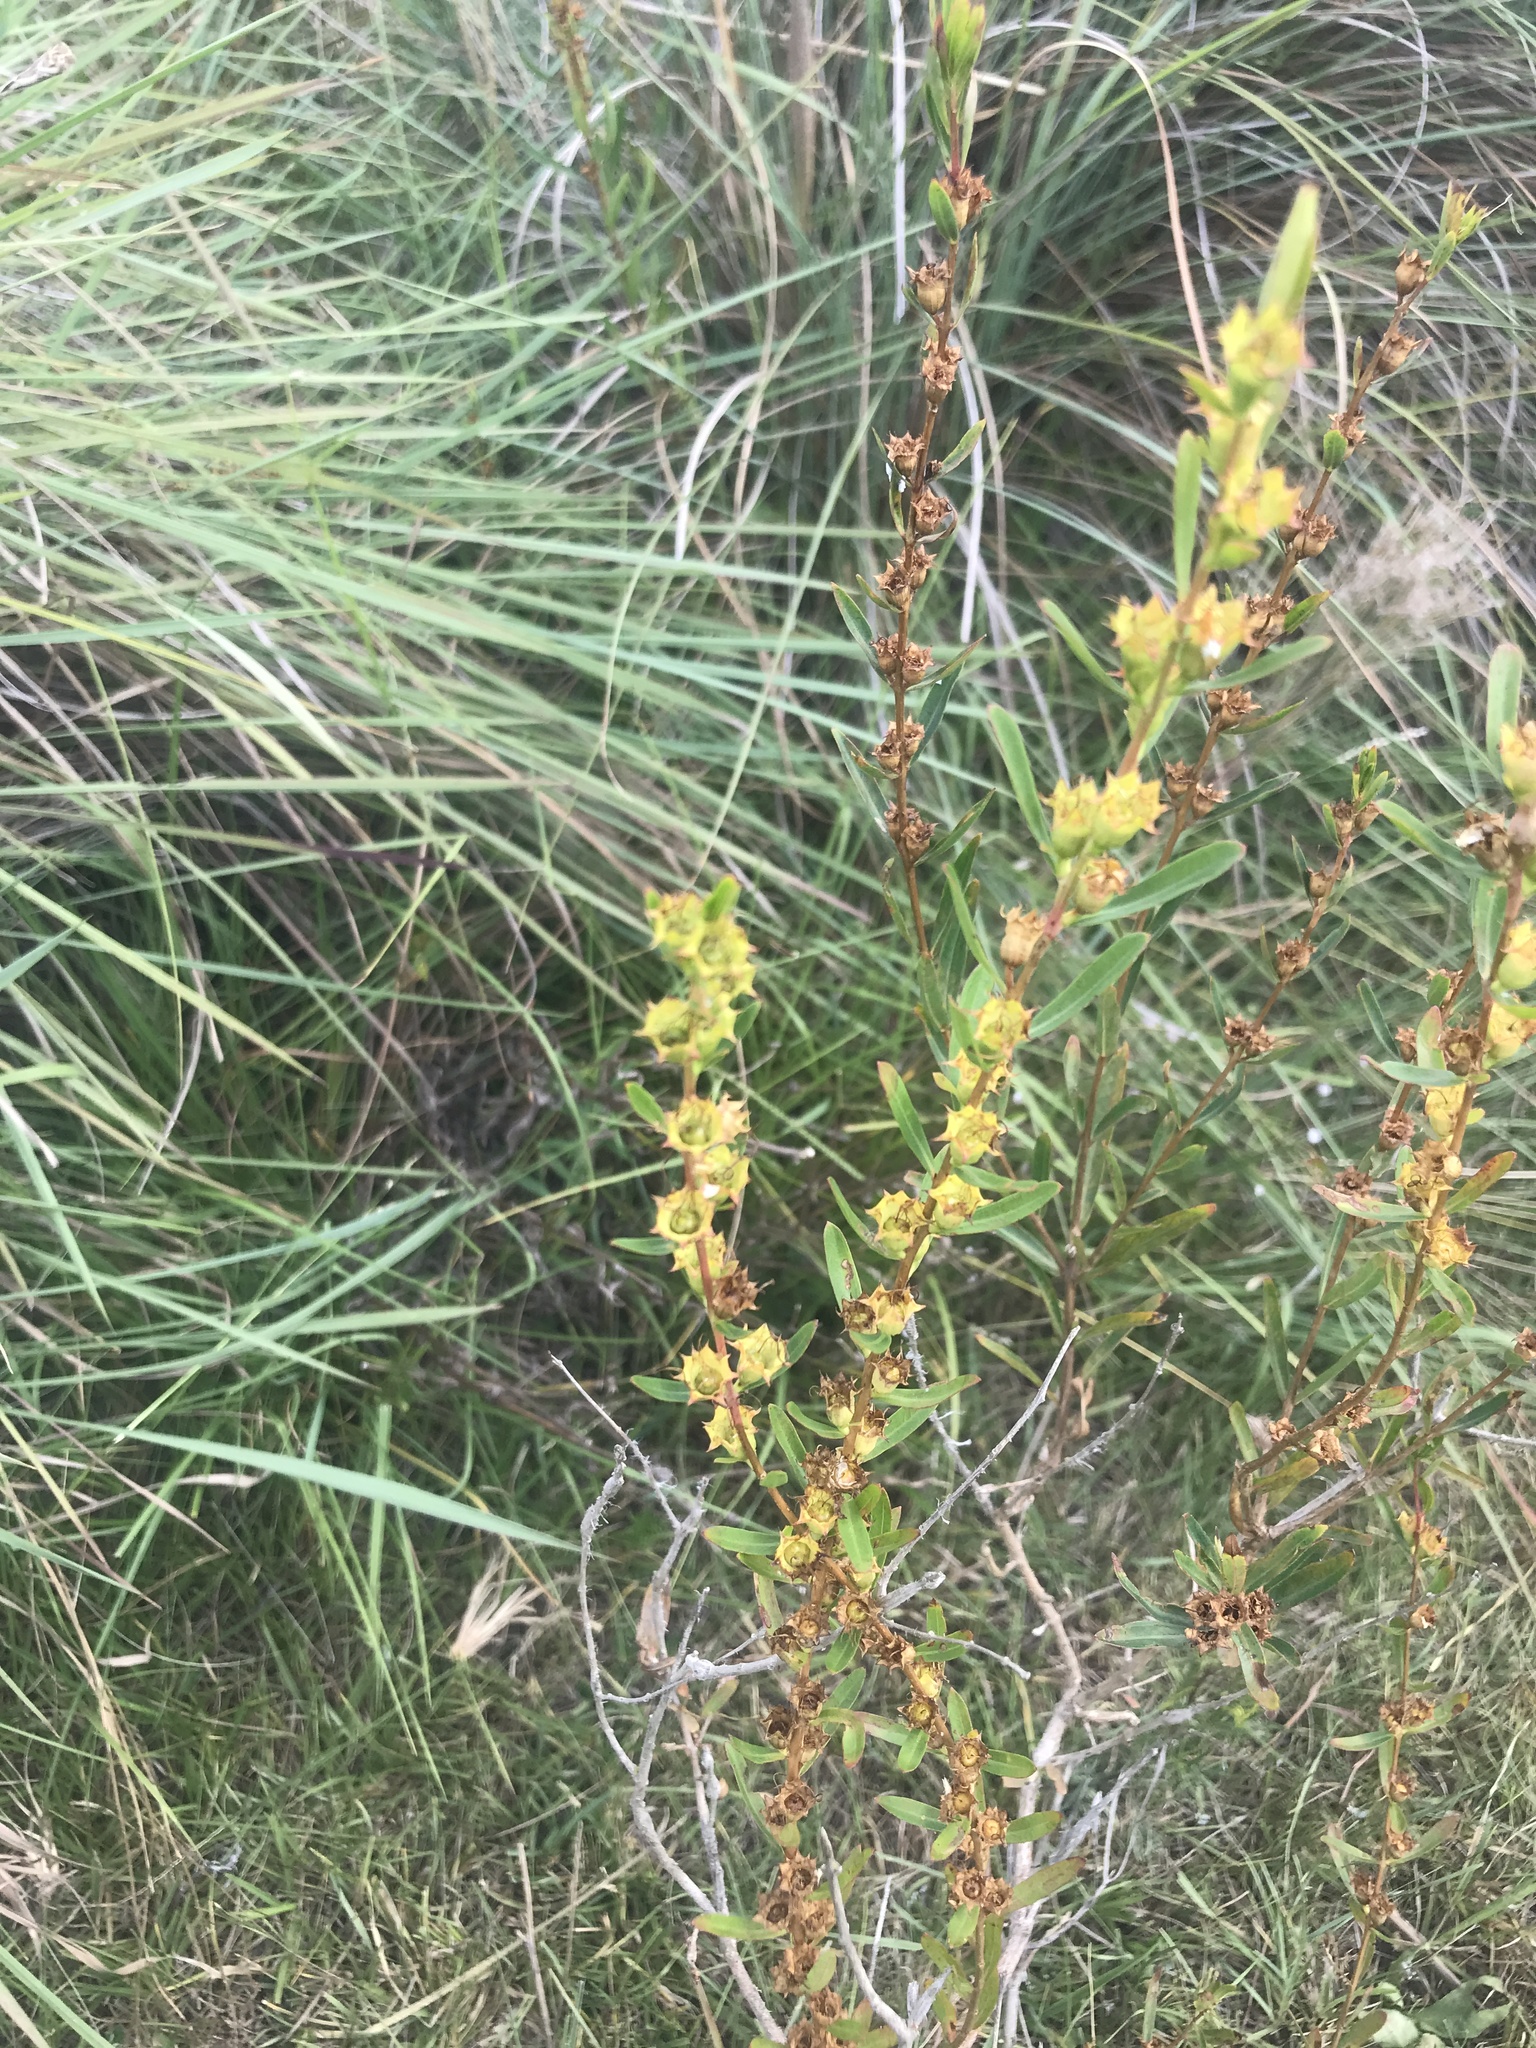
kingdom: Plantae
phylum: Tracheophyta
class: Magnoliopsida
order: Myrtales
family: Lythraceae
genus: Heimia
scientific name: Heimia salicifolia
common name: Willow-leaf heimia
